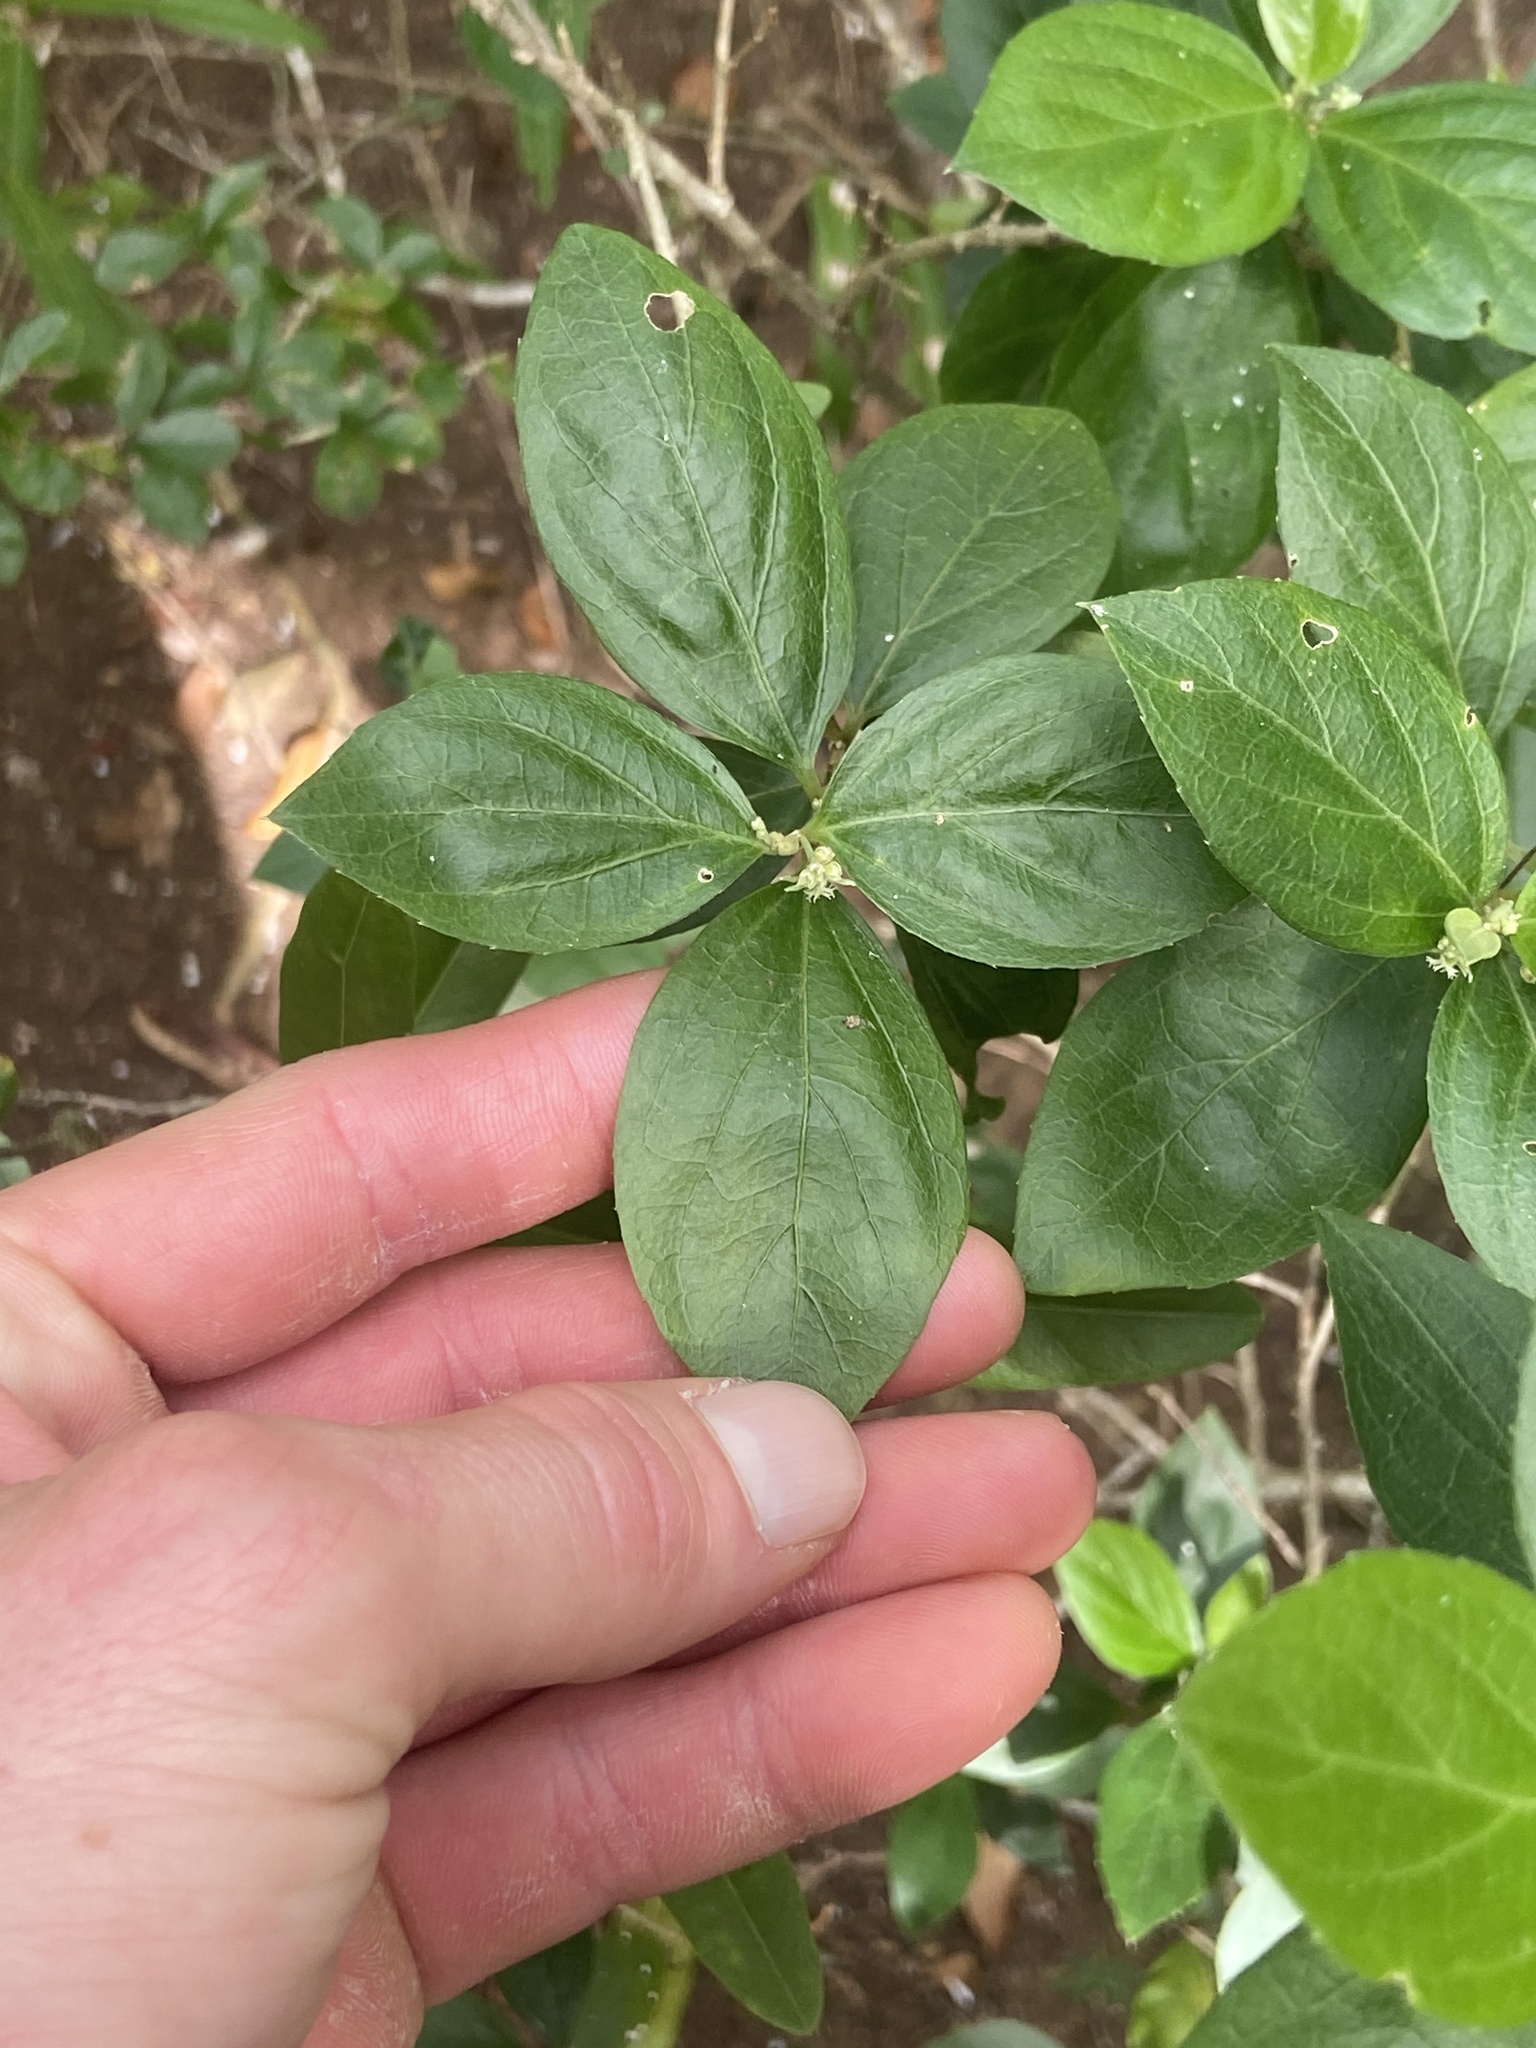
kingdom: Plantae
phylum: Tracheophyta
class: Magnoliopsida
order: Malpighiales
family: Euphorbiaceae
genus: Argythamnia
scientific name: Argythamnia candicans
